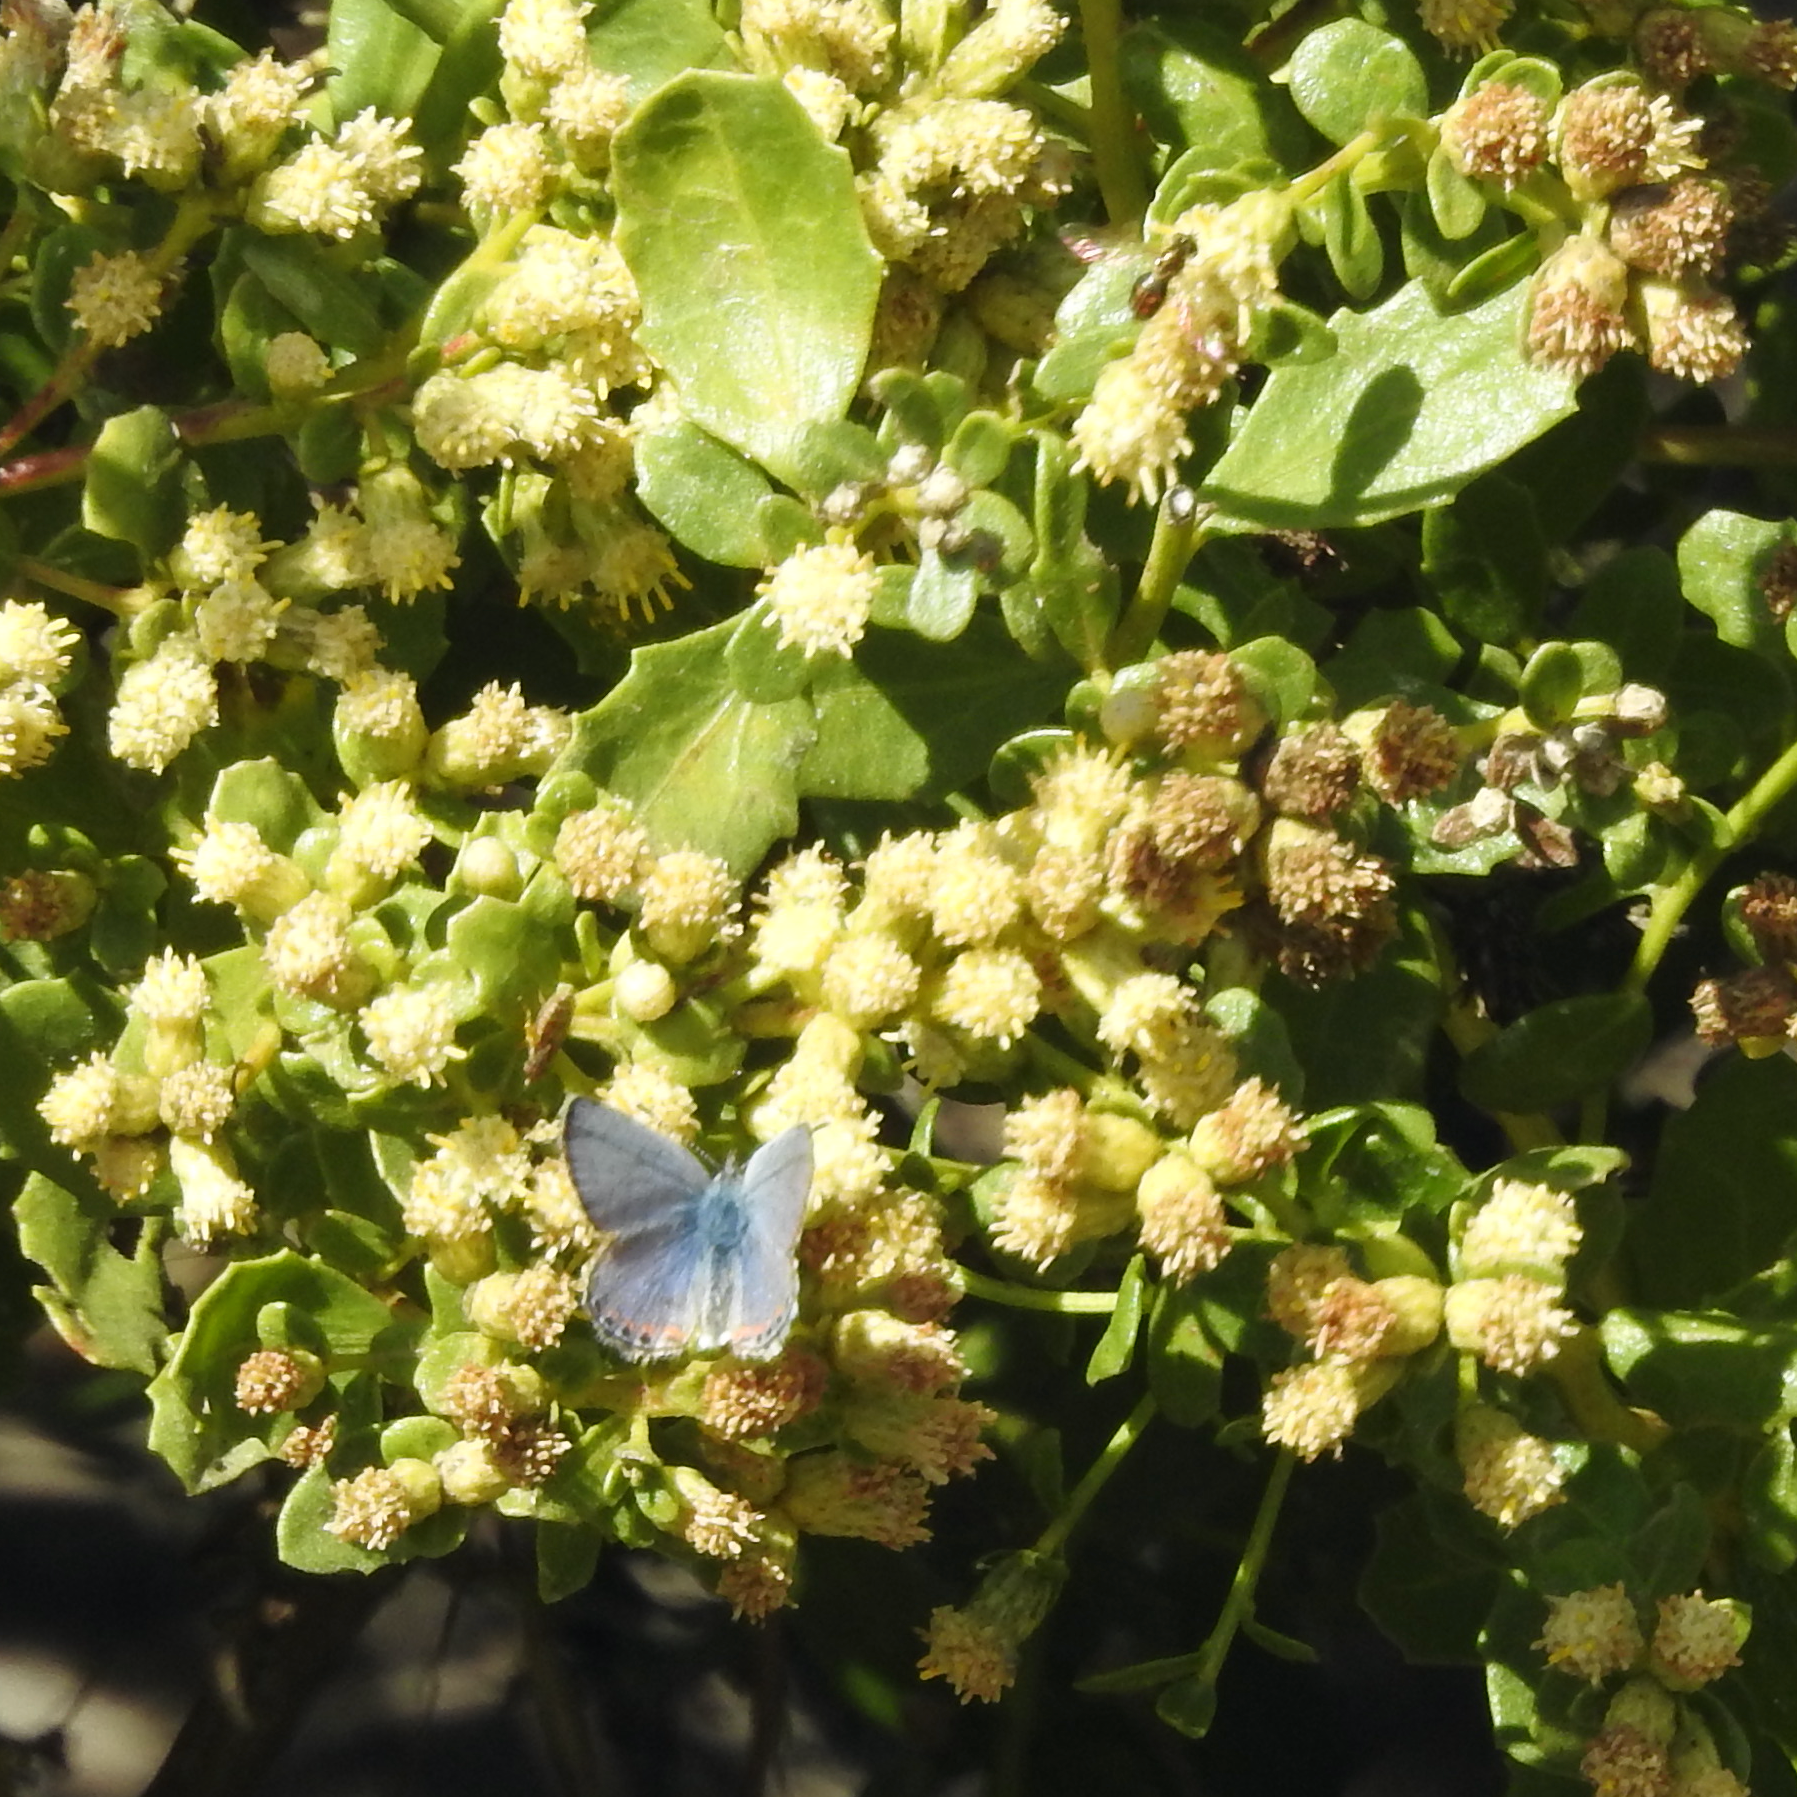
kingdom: Animalia
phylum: Arthropoda
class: Insecta
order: Lepidoptera
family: Lycaenidae
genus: Icaricia
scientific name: Icaricia acmon
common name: Acmon blue
